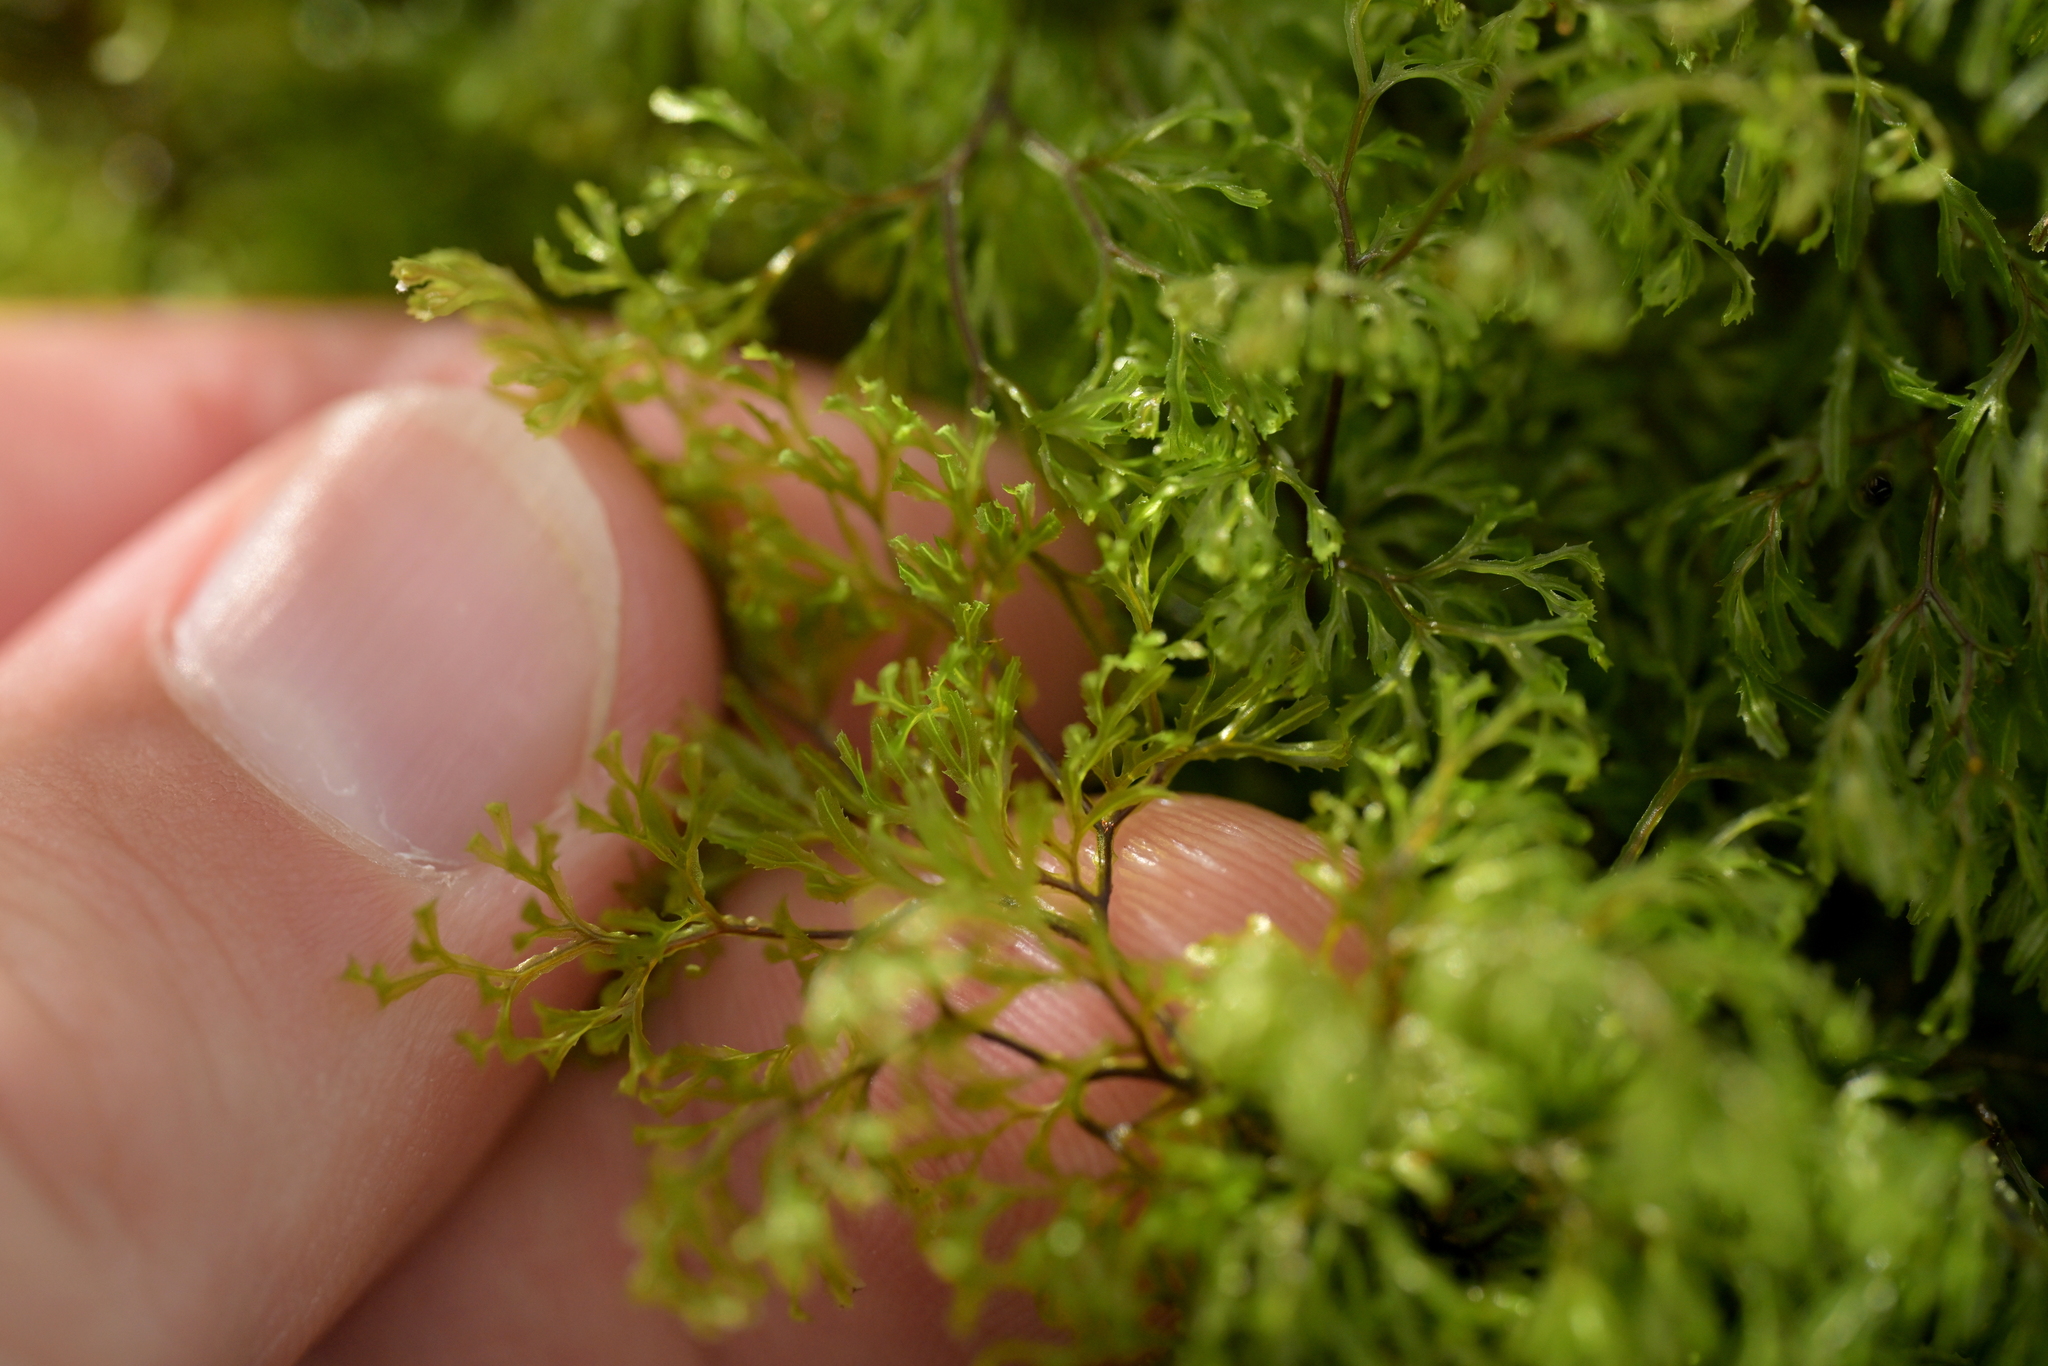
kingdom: Plantae
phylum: Tracheophyta
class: Polypodiopsida
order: Hymenophyllales
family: Hymenophyllaceae
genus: Hymenophyllum
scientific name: Hymenophyllum multifidum
